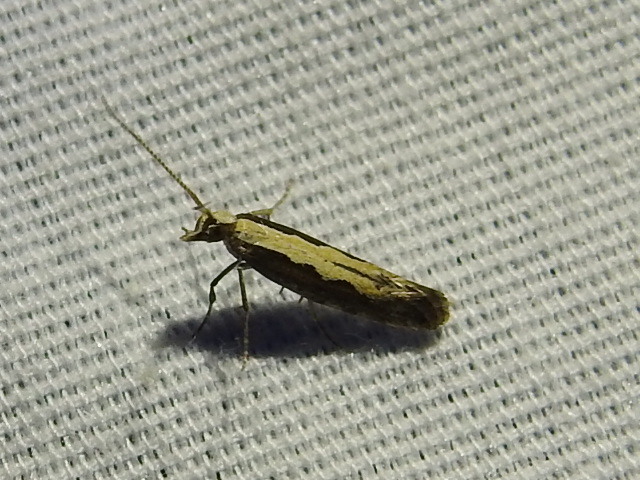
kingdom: Animalia
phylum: Arthropoda
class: Insecta
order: Lepidoptera
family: Plutellidae
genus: Plutella
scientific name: Plutella xylostella
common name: Diamond-back moth
